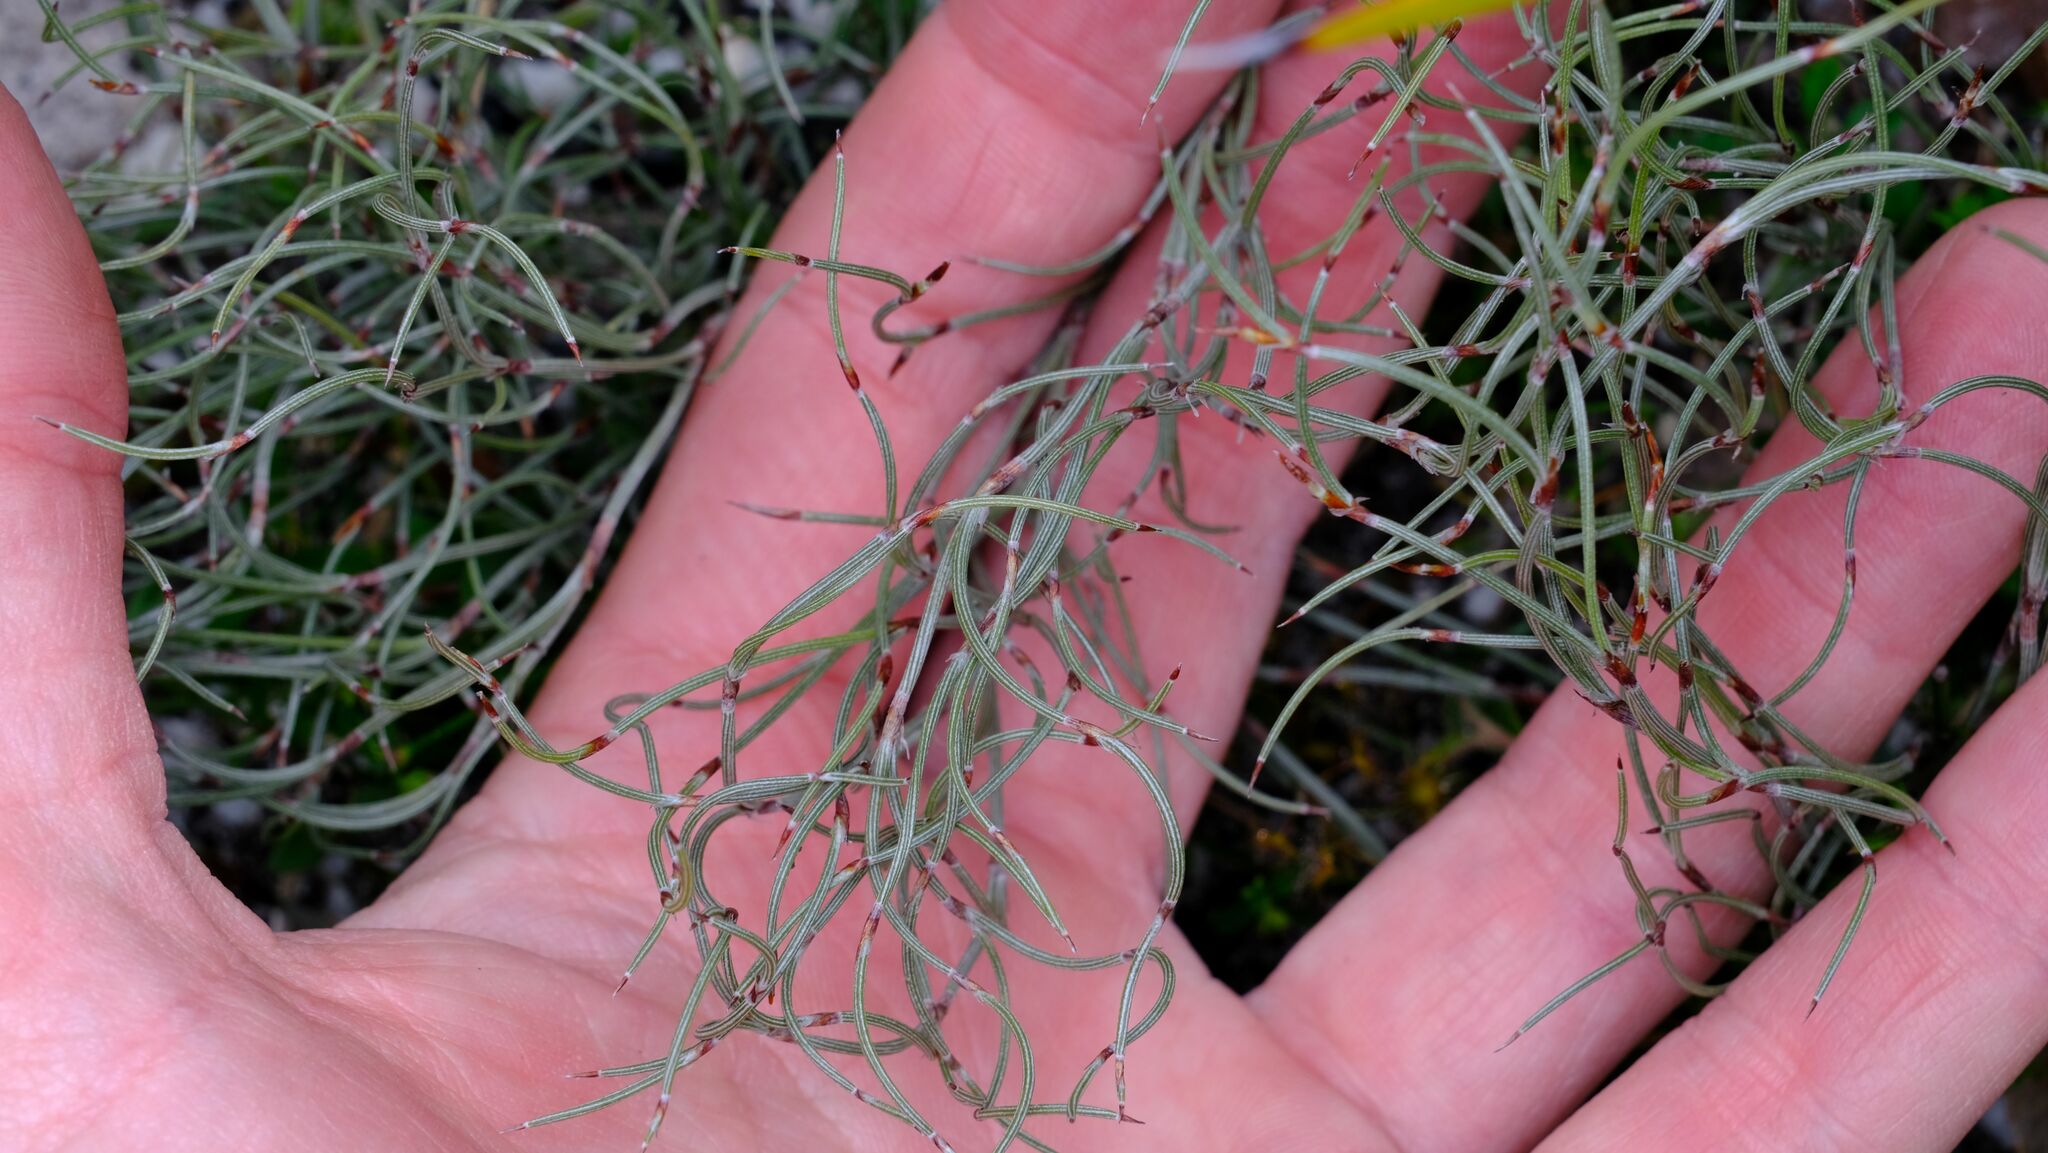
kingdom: Plantae
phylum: Tracheophyta
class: Liliopsida
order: Poales
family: Restionaceae
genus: Hypolaena
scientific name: Hypolaena fastigiata
